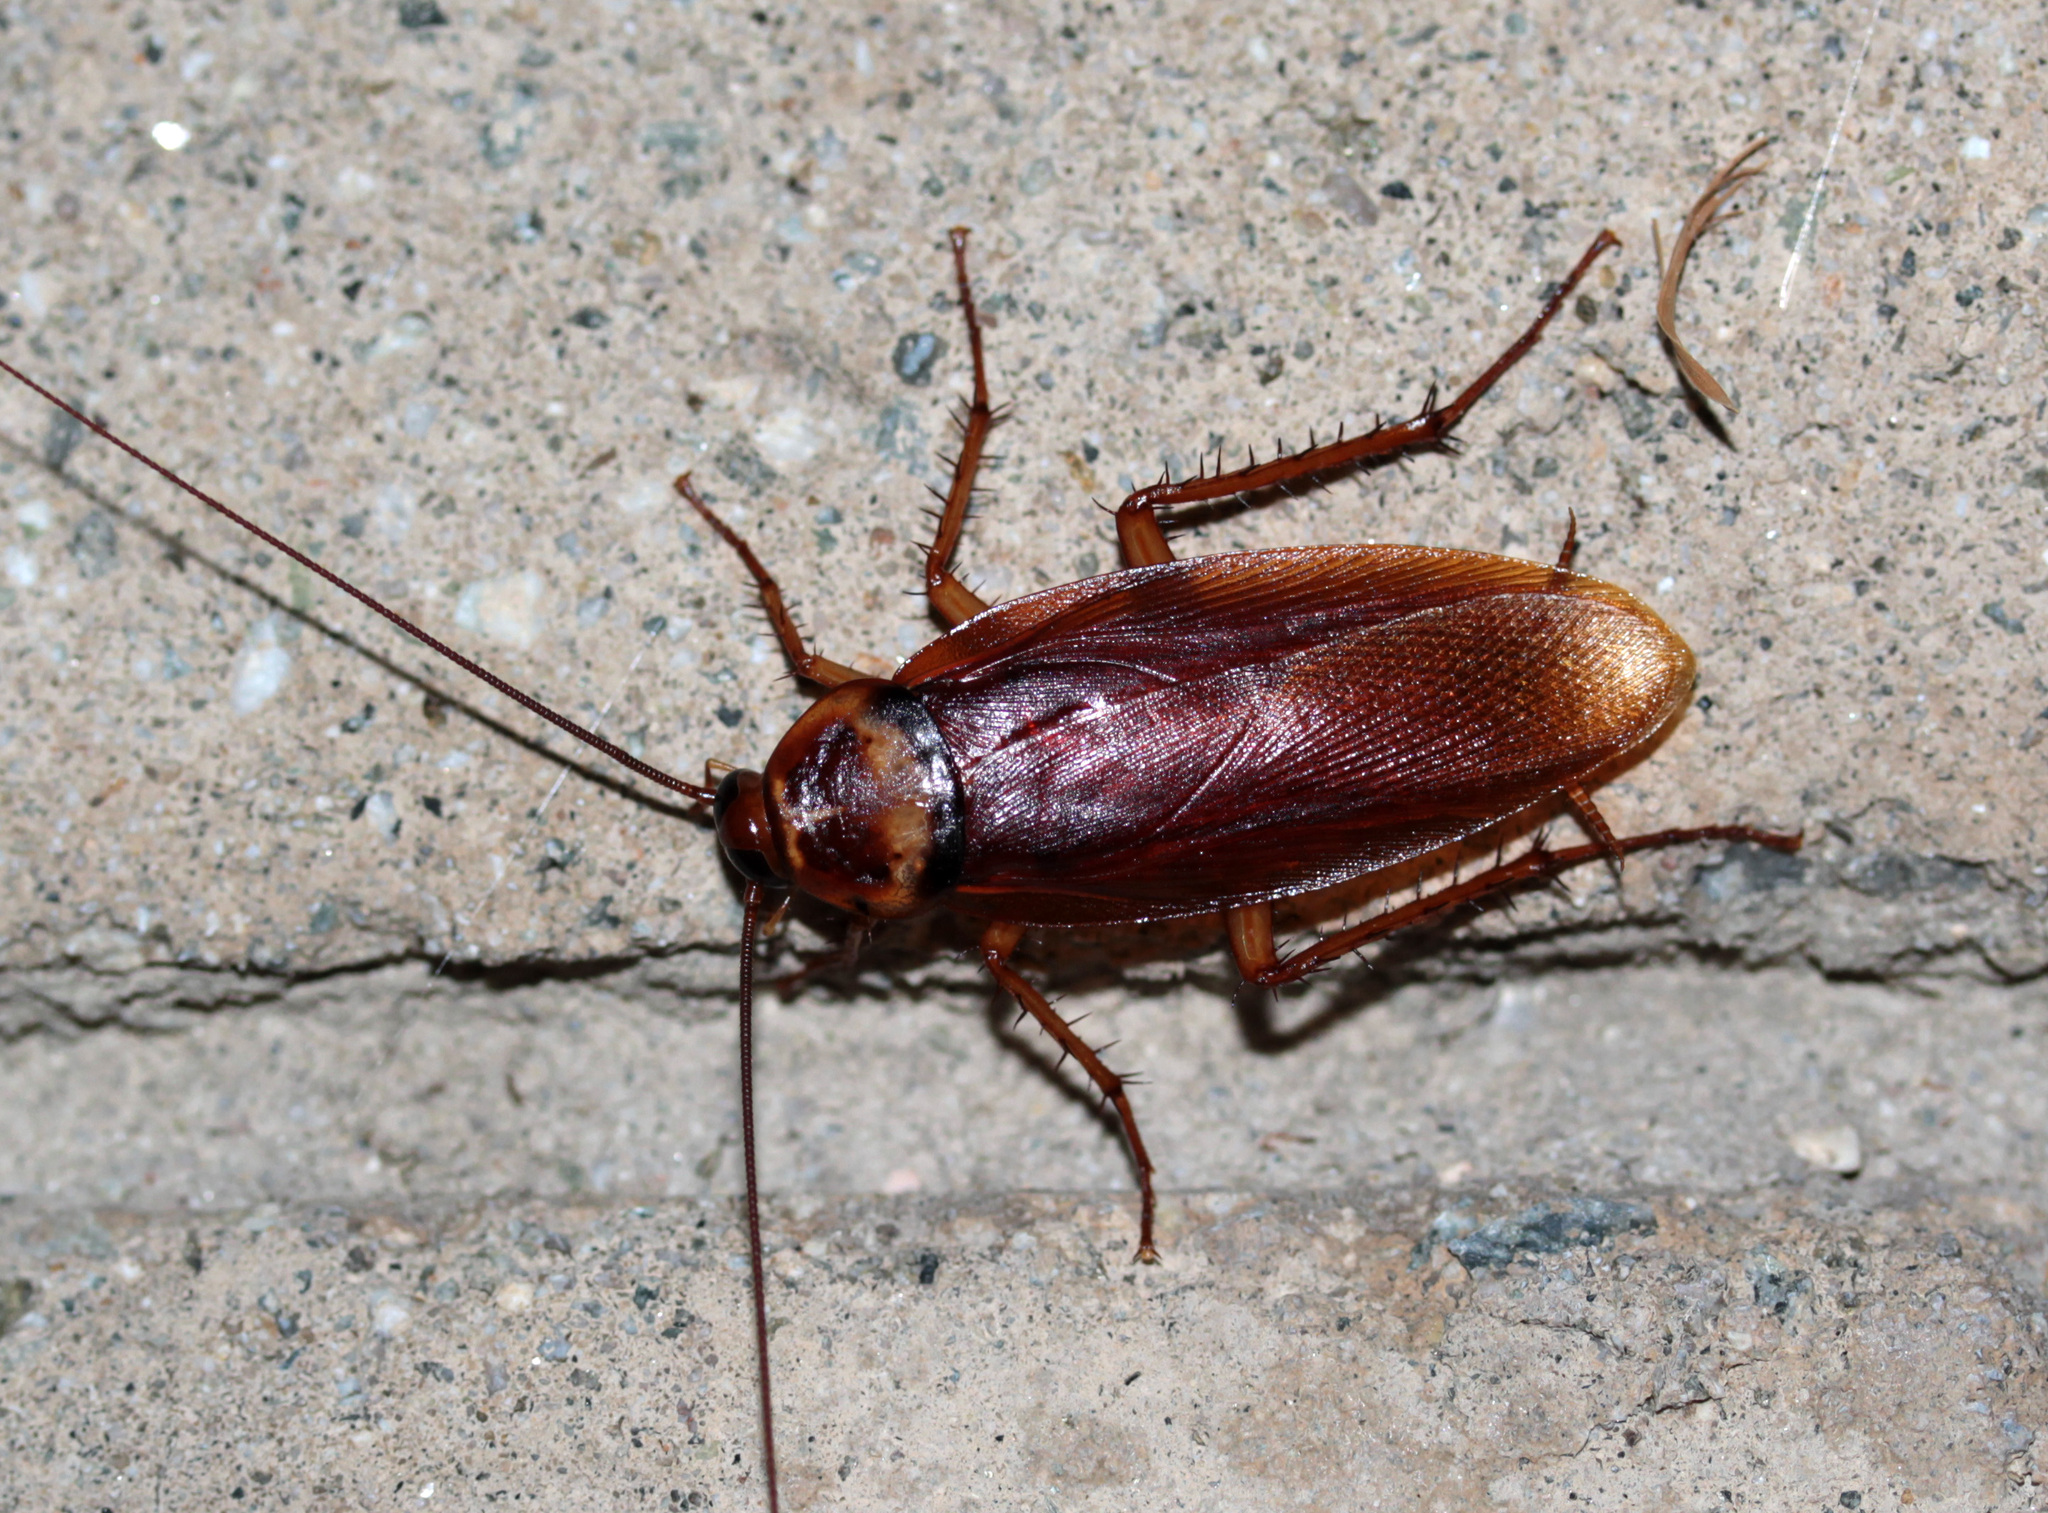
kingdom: Animalia
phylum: Arthropoda
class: Insecta
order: Blattodea
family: Blattidae
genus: Periplaneta
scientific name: Periplaneta americana
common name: American cockroach
